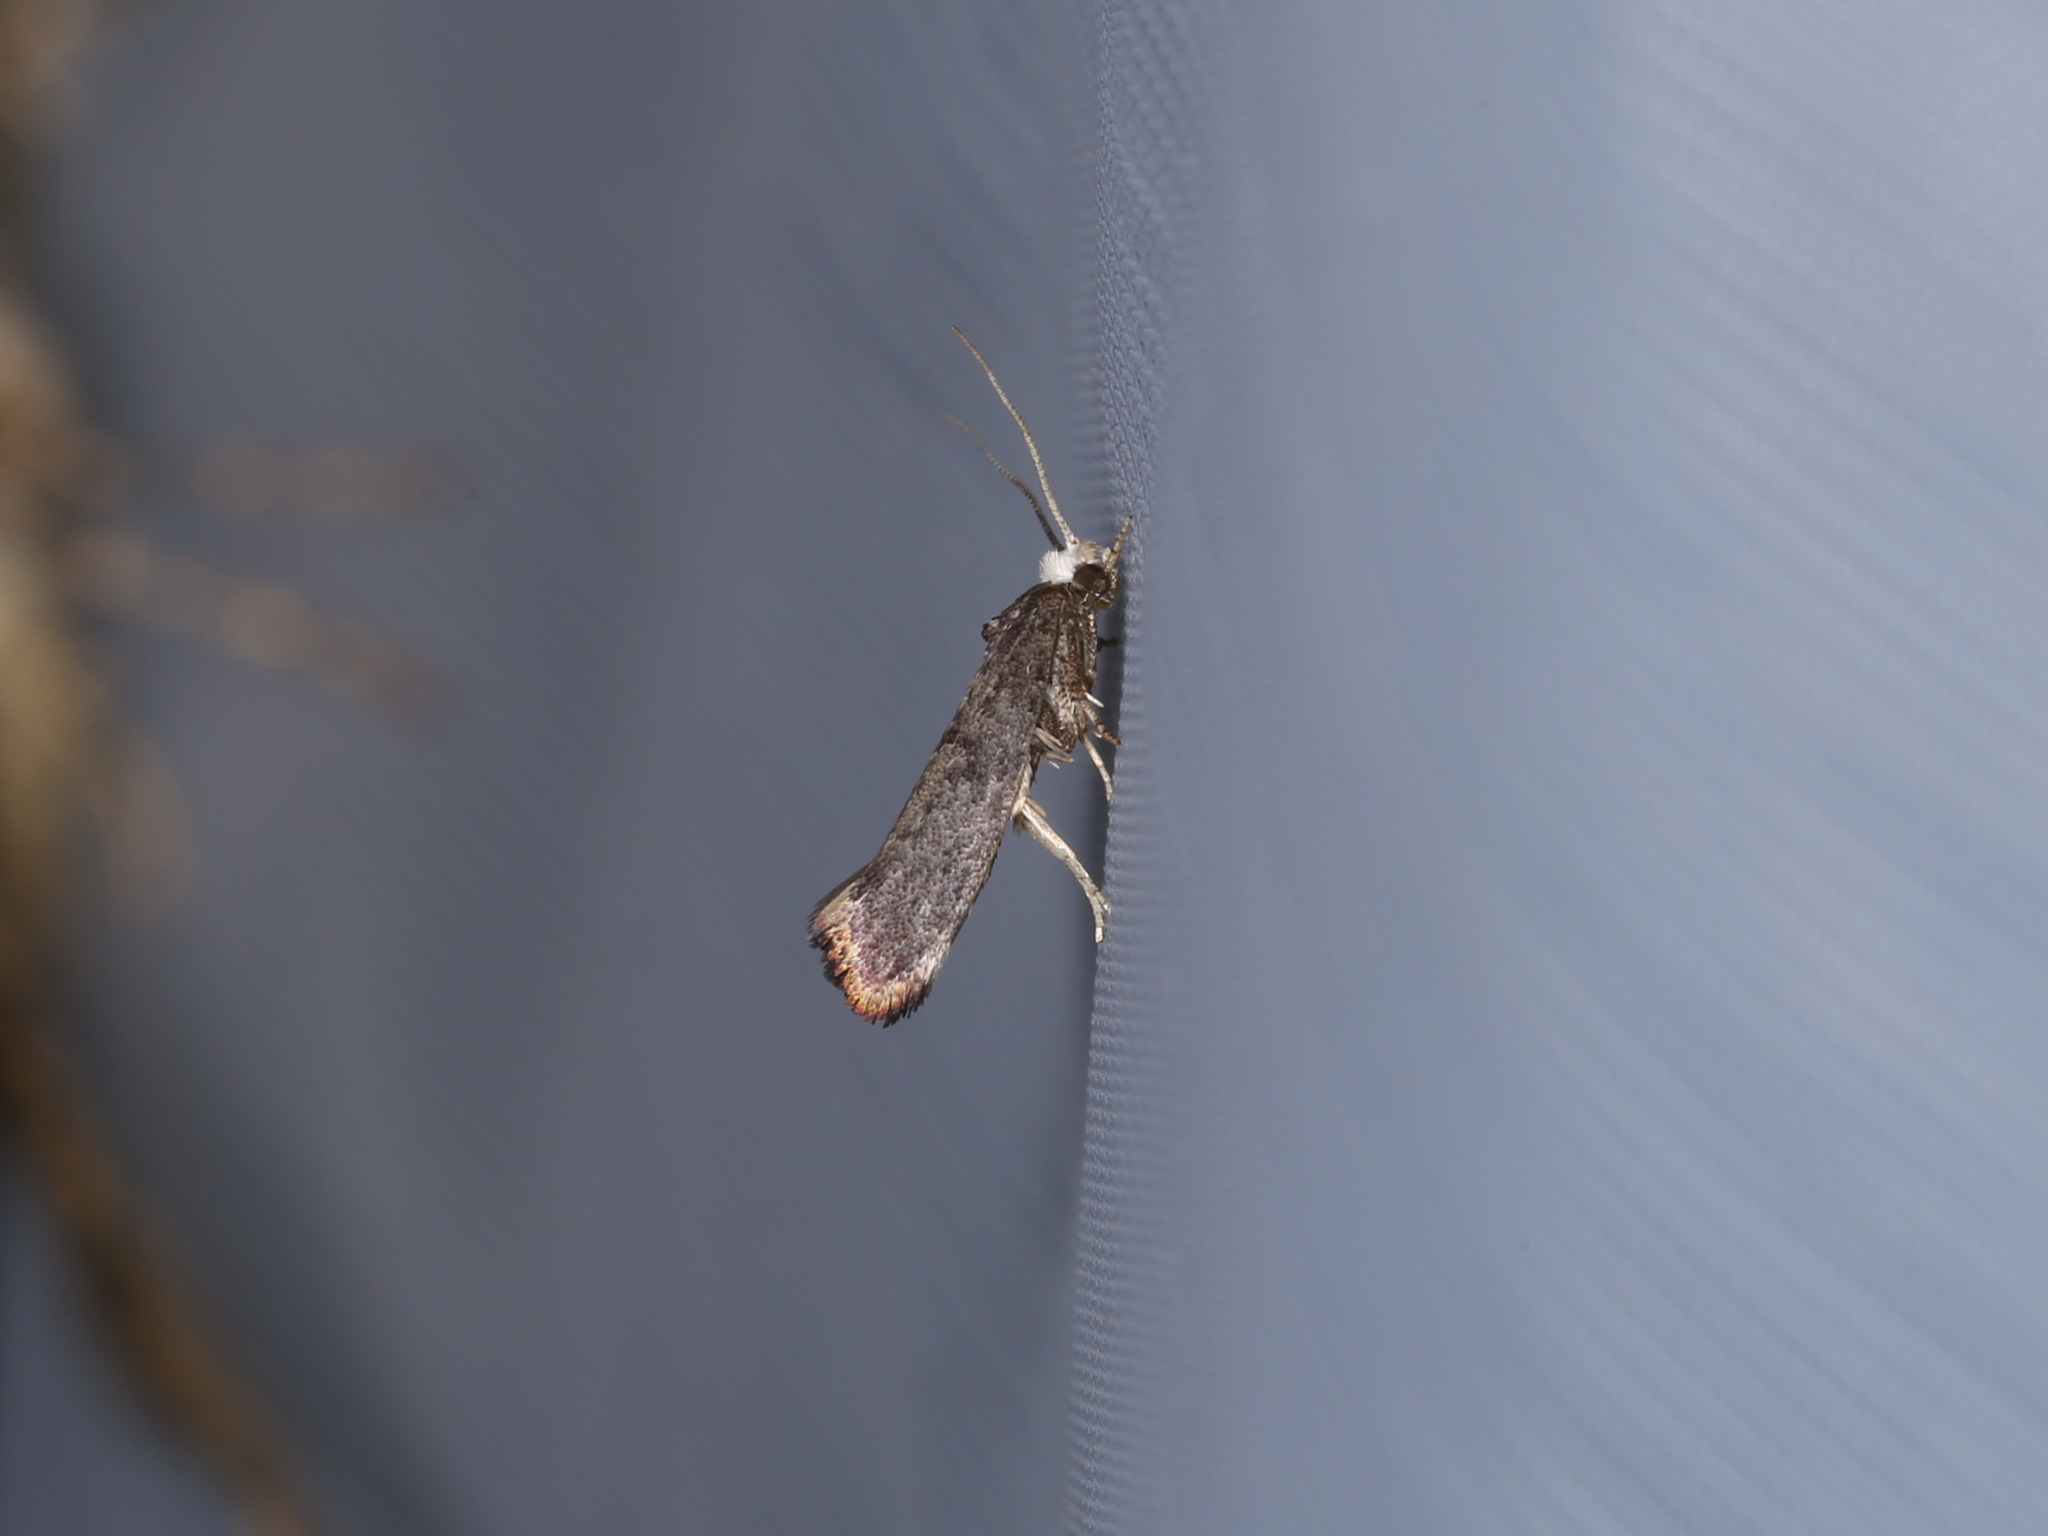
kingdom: Animalia
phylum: Arthropoda
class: Insecta
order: Lepidoptera
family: Yponomeutidae
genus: Swammerdamia
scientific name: Swammerdamia pyrella
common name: Little ermine moth
